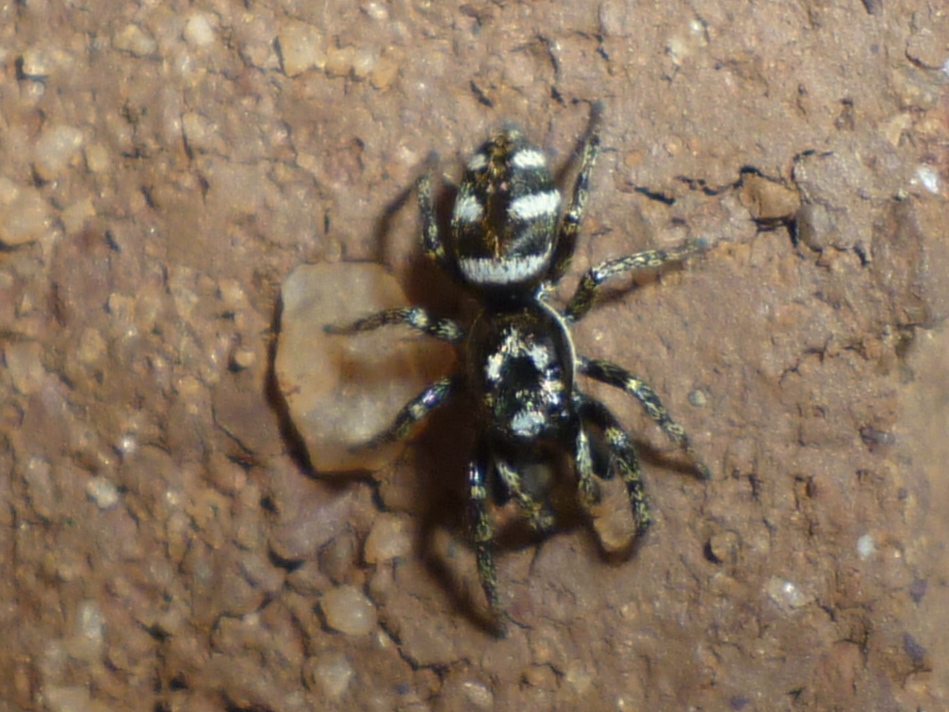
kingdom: Animalia
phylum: Arthropoda
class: Arachnida
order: Araneae
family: Salticidae
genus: Salticus
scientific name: Salticus scenicus
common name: Zebra jumper
